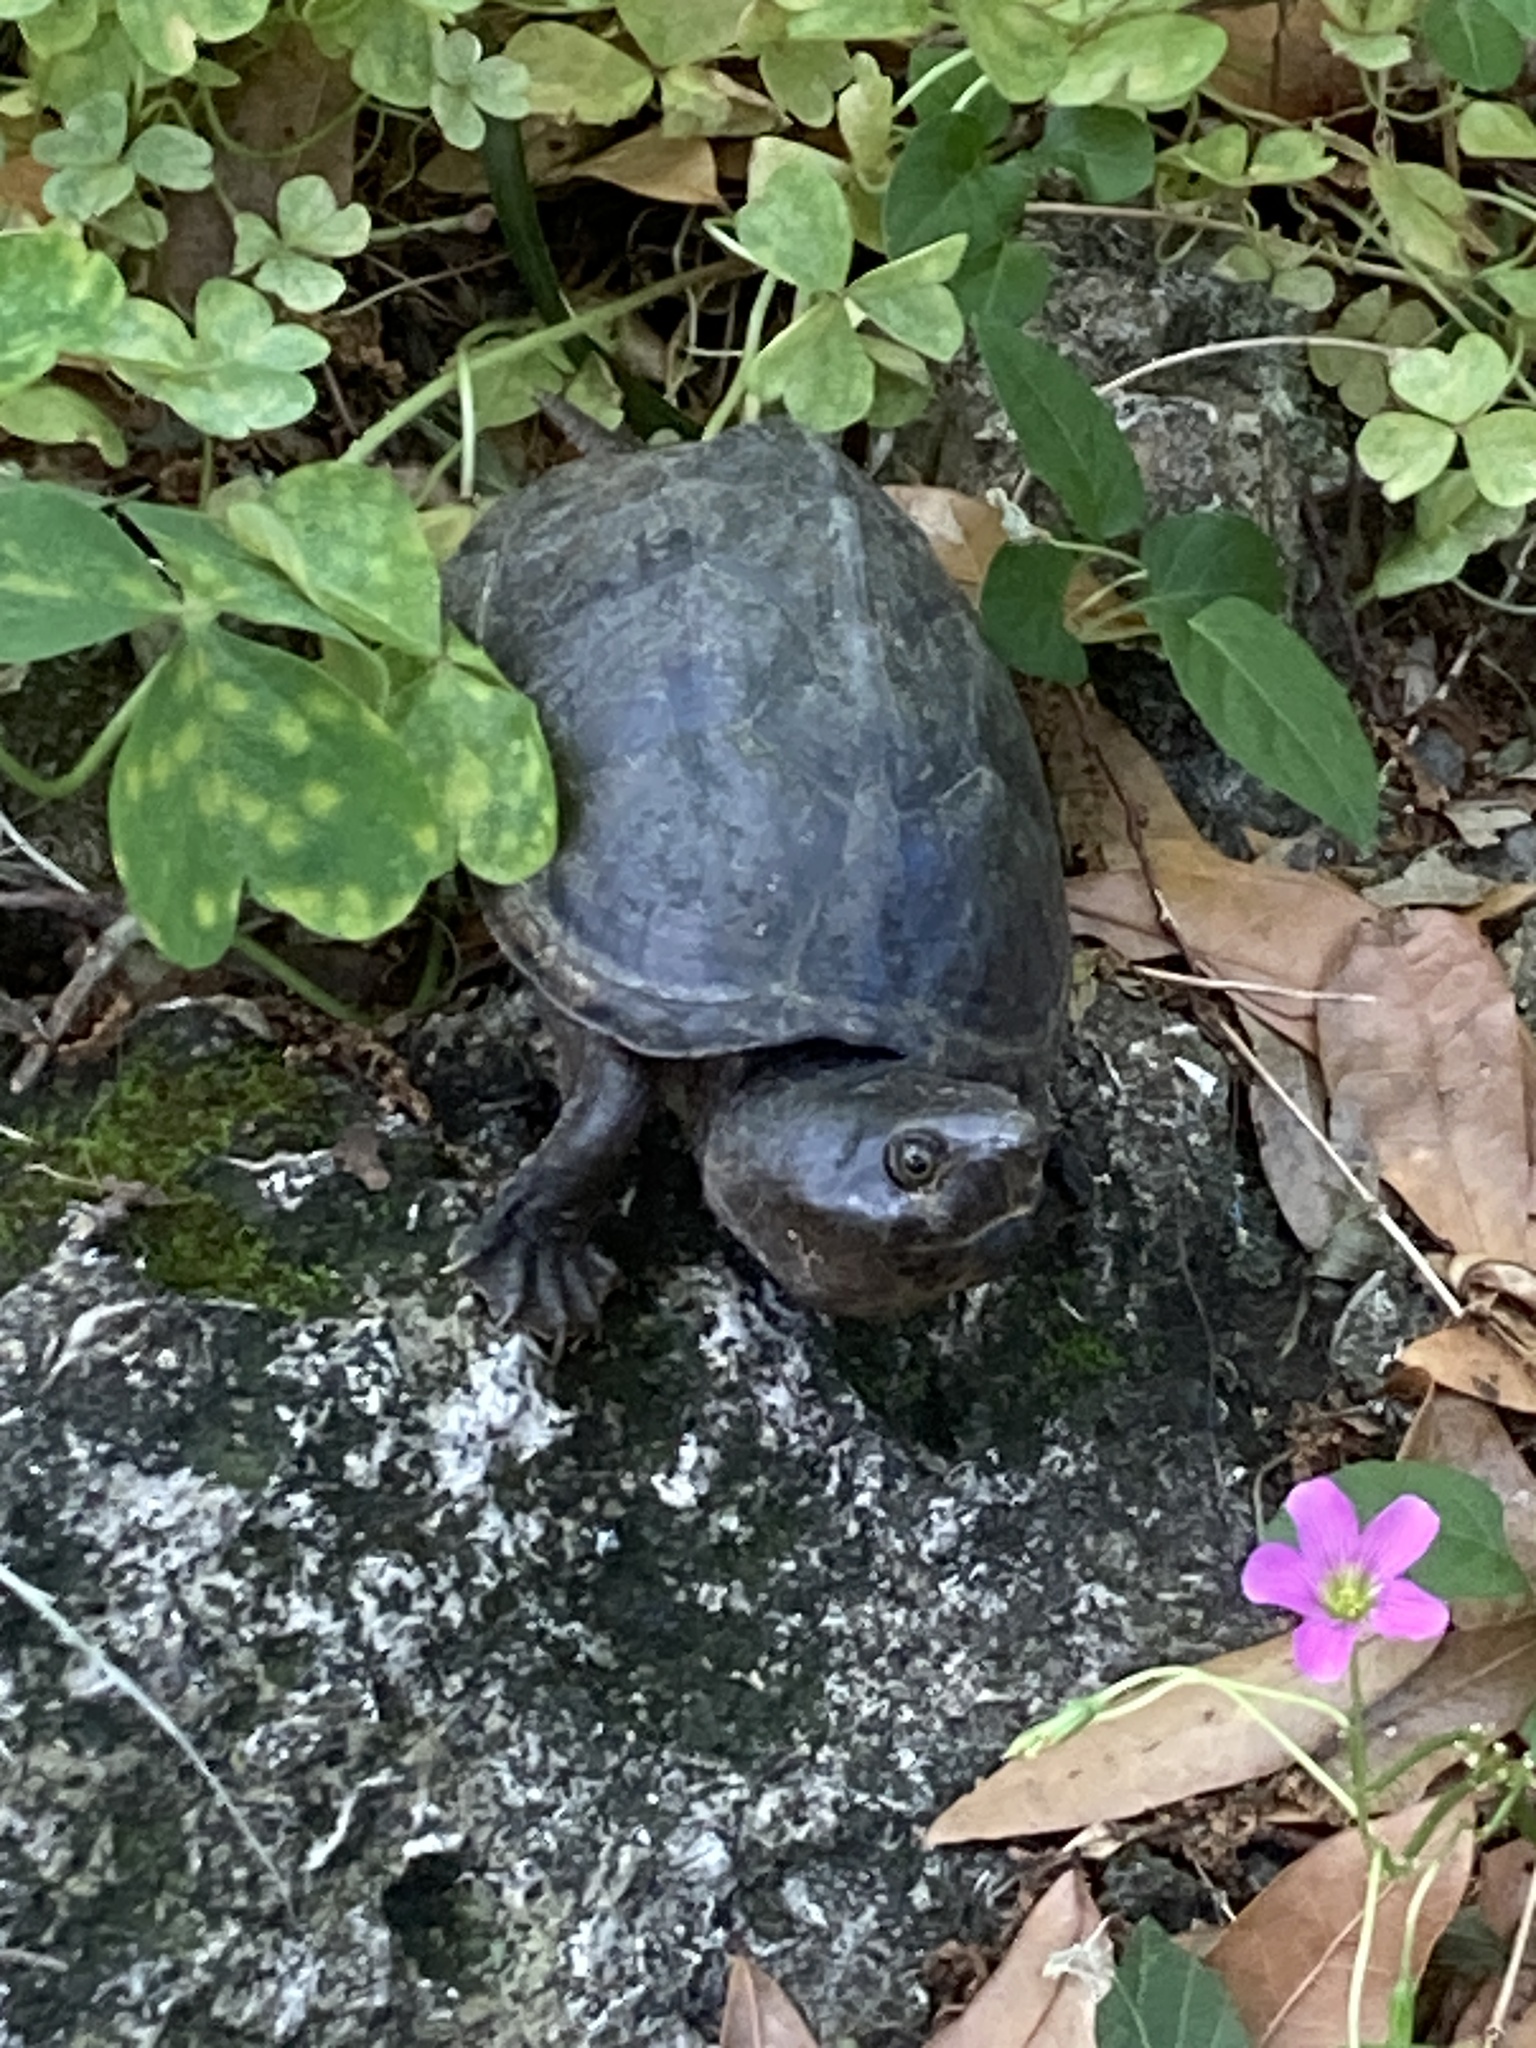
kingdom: Animalia
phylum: Chordata
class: Testudines
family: Kinosternidae
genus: Sternotherus
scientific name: Sternotherus minor
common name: Loggerhead musk turtle
